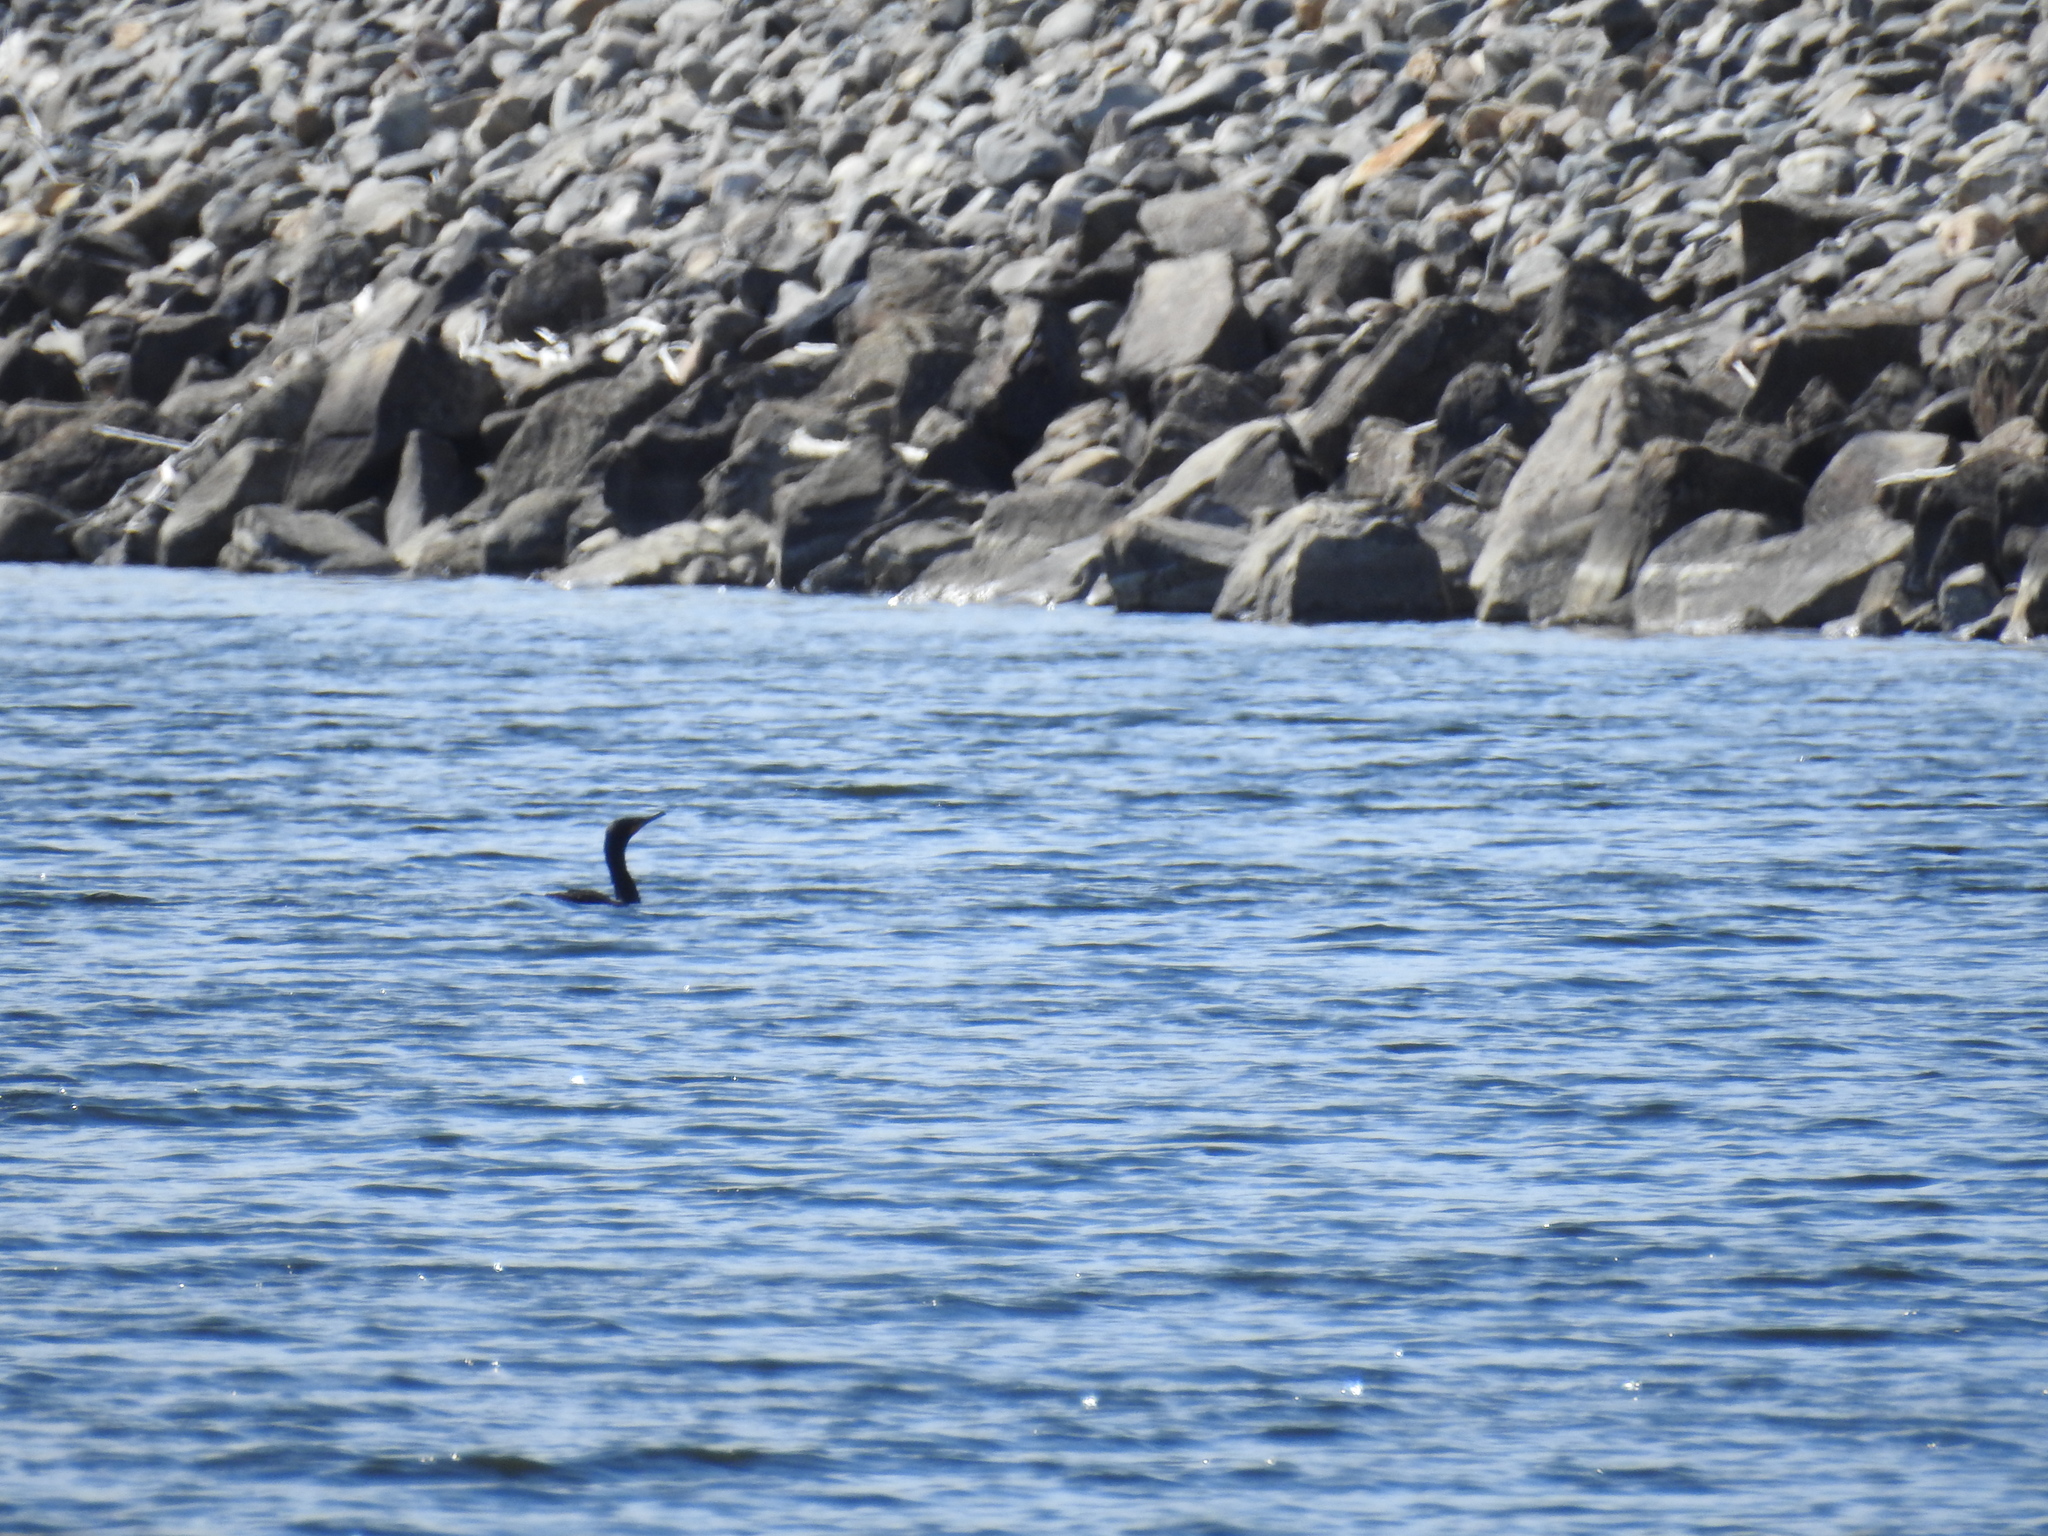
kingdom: Animalia
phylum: Chordata
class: Aves
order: Suliformes
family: Phalacrocoracidae
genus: Phalacrocorax
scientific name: Phalacrocorax auritus
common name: Double-crested cormorant
